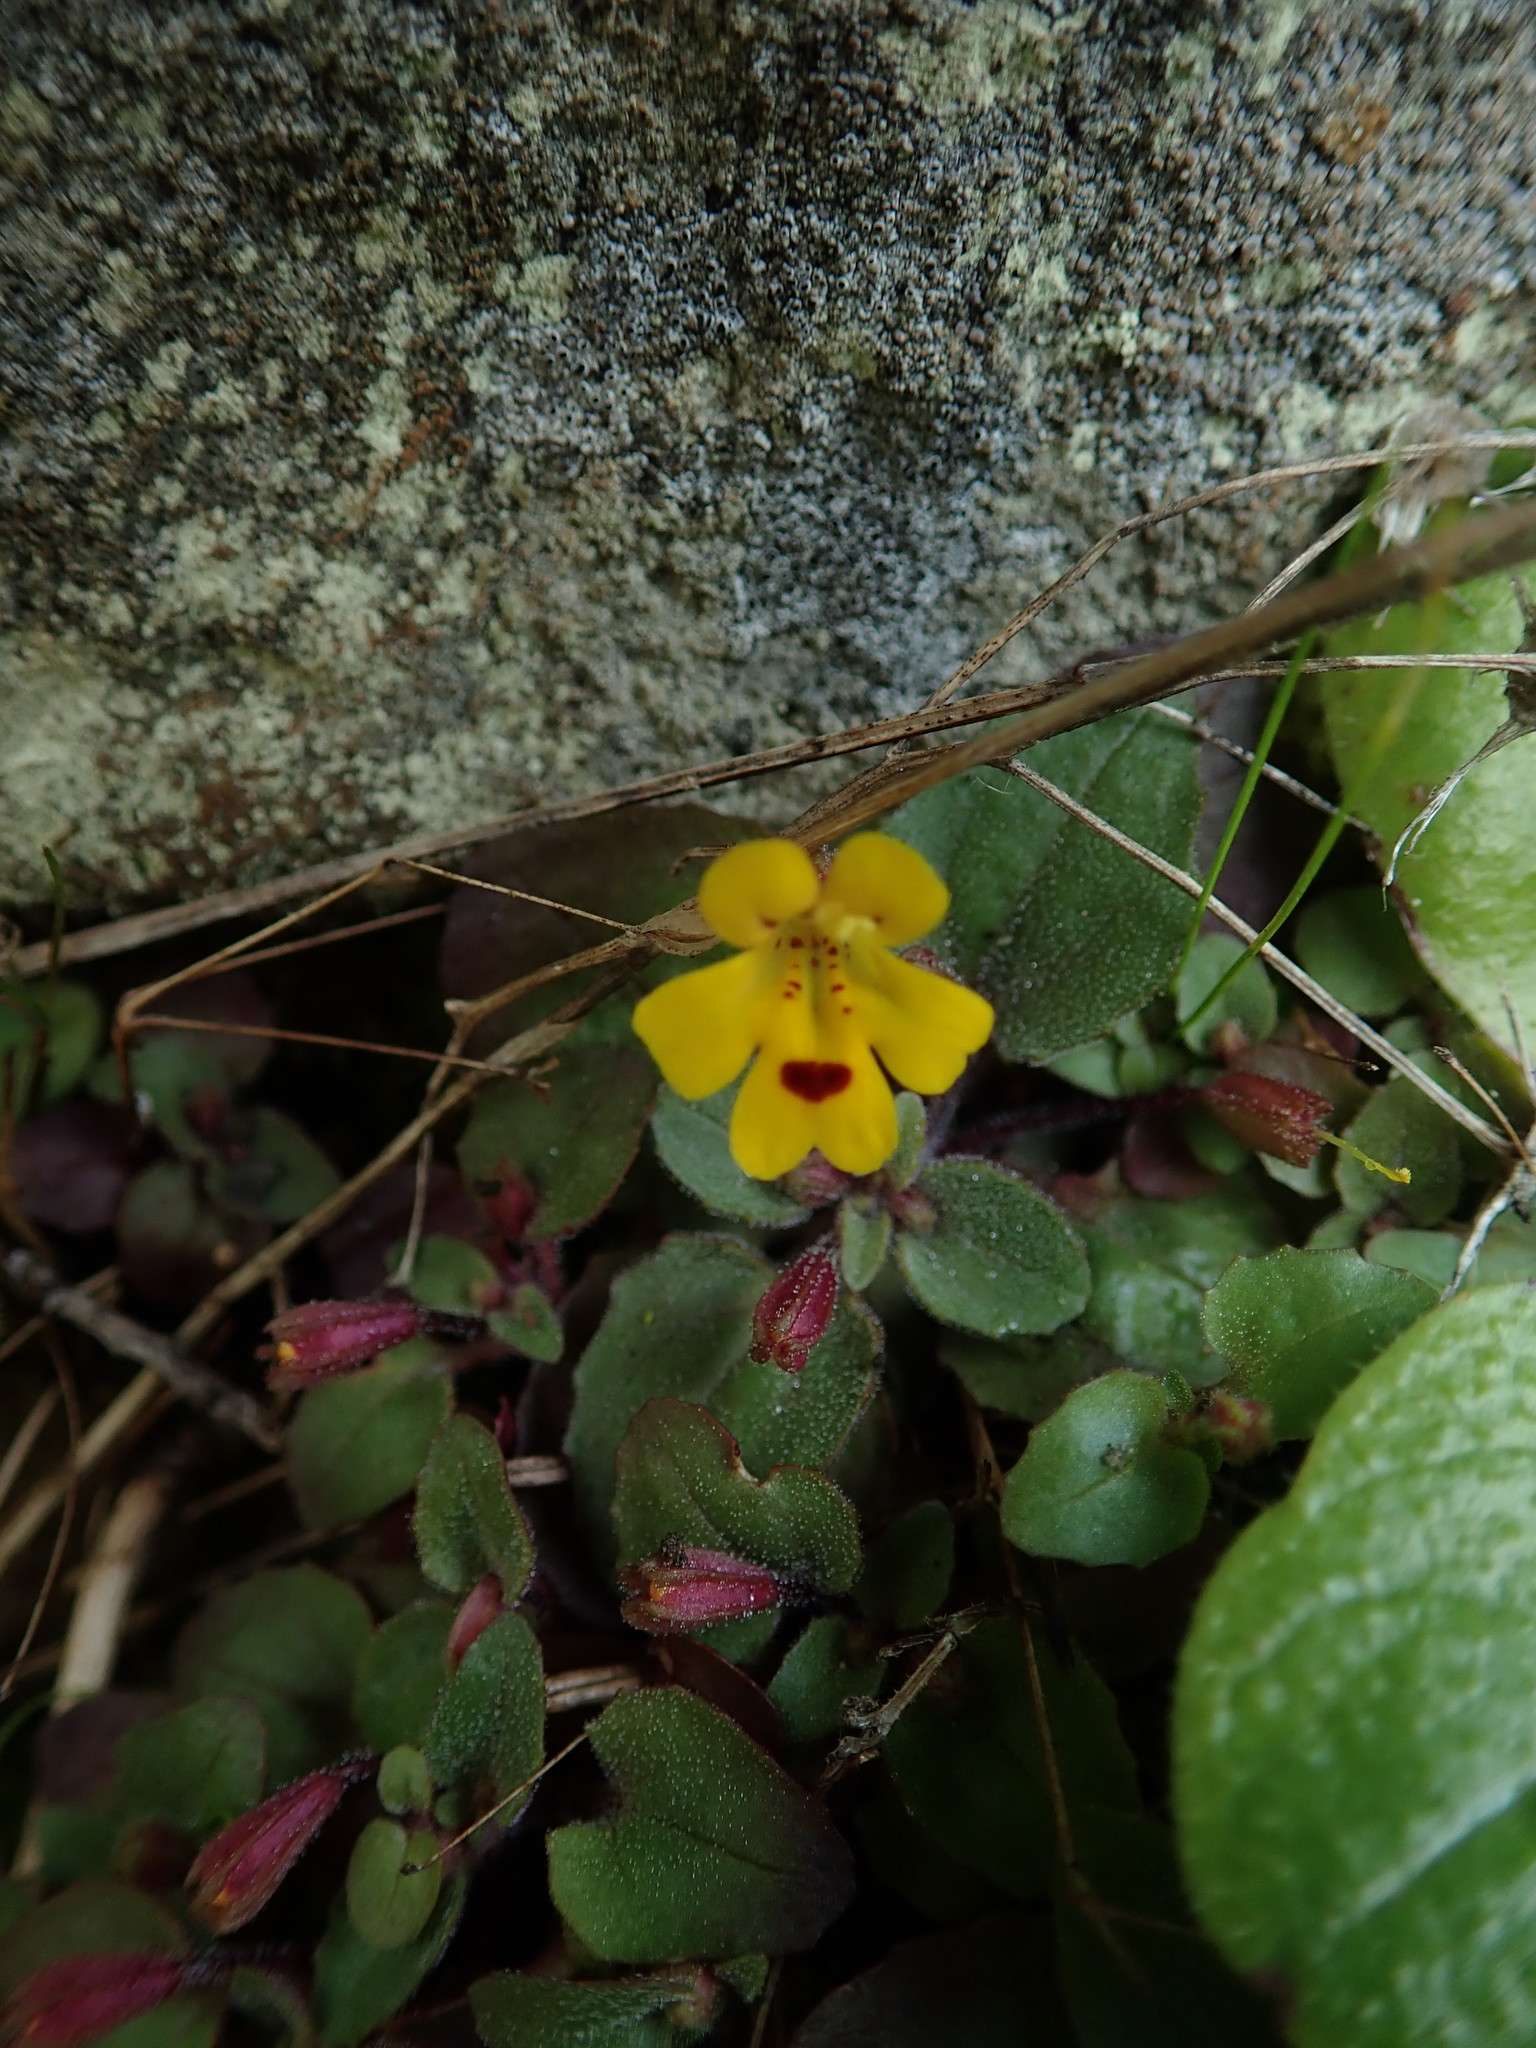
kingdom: Plantae
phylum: Tracheophyta
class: Magnoliopsida
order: Lamiales
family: Phrymaceae
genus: Erythranthe
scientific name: Erythranthe alsinoides
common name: Chickweed monkeyflower
